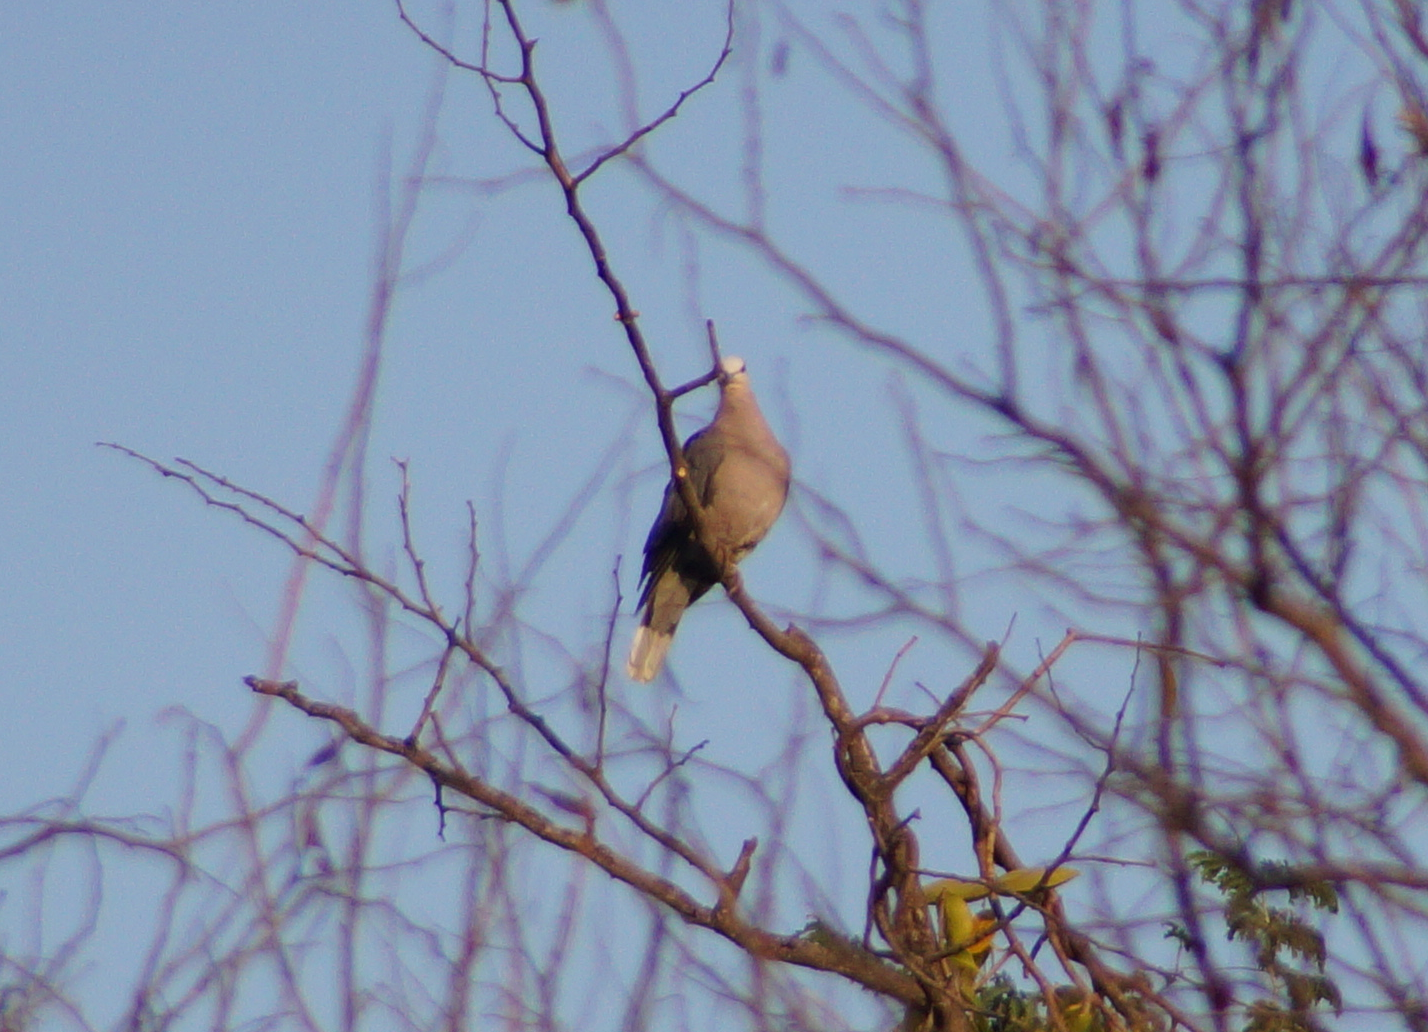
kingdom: Animalia
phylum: Chordata
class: Aves
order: Columbiformes
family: Columbidae
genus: Streptopelia
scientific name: Streptopelia semitorquata
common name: Red-eyed dove
